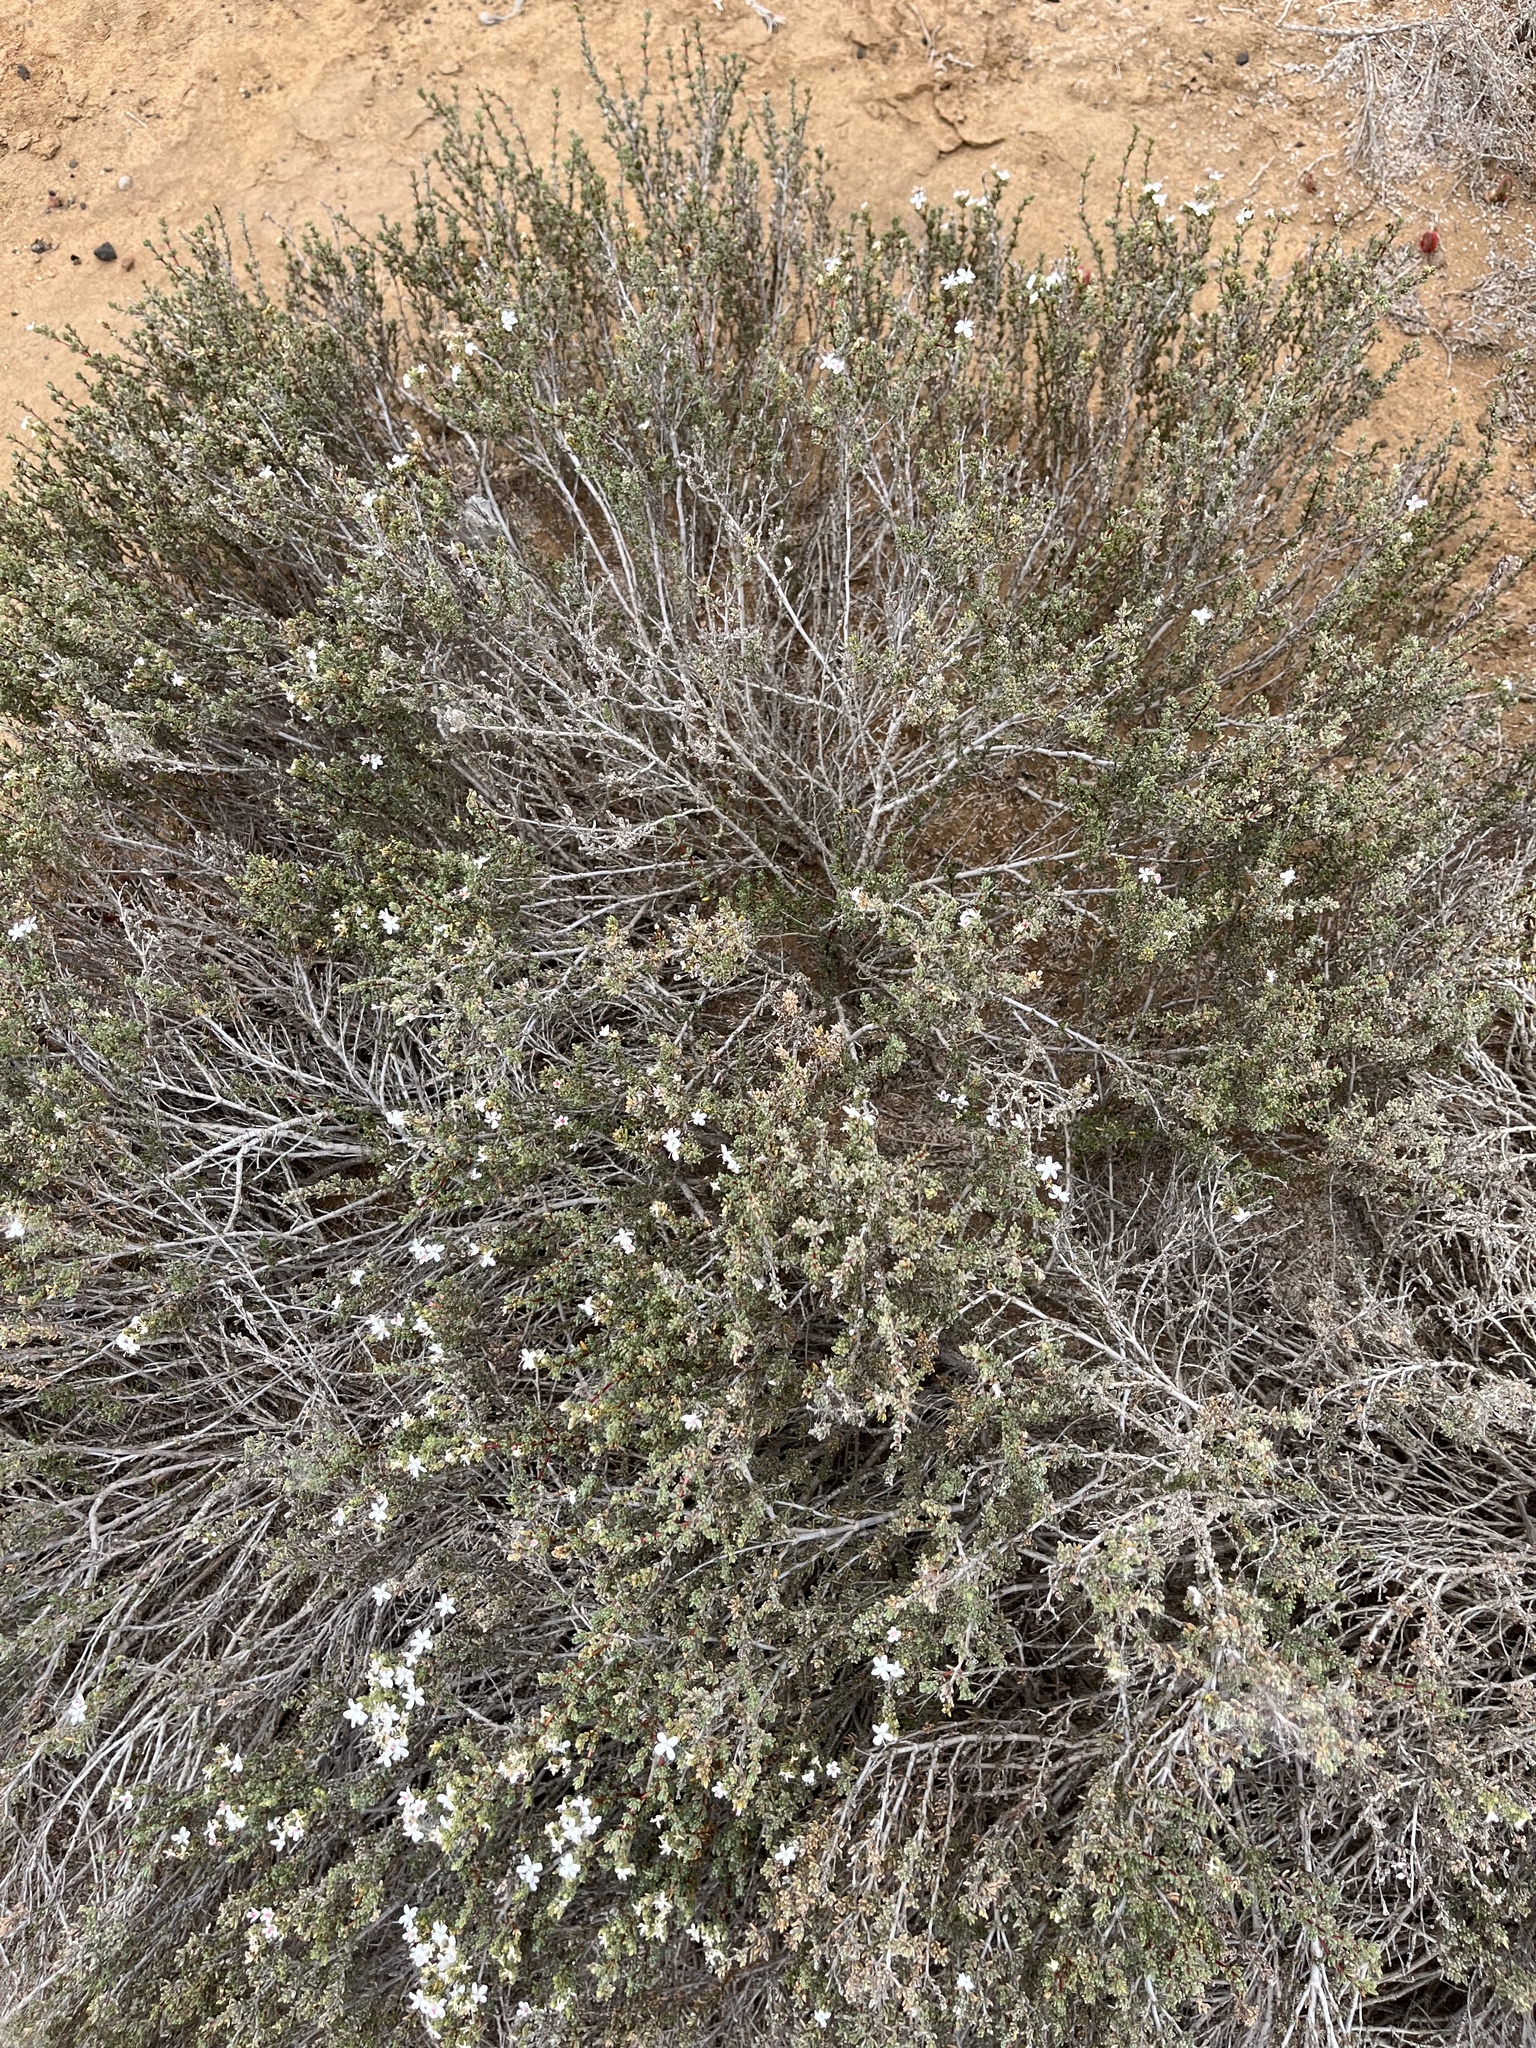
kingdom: Plantae
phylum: Tracheophyta
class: Magnoliopsida
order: Caryophyllales
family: Frankeniaceae
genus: Frankenia
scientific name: Frankenia palmeri
